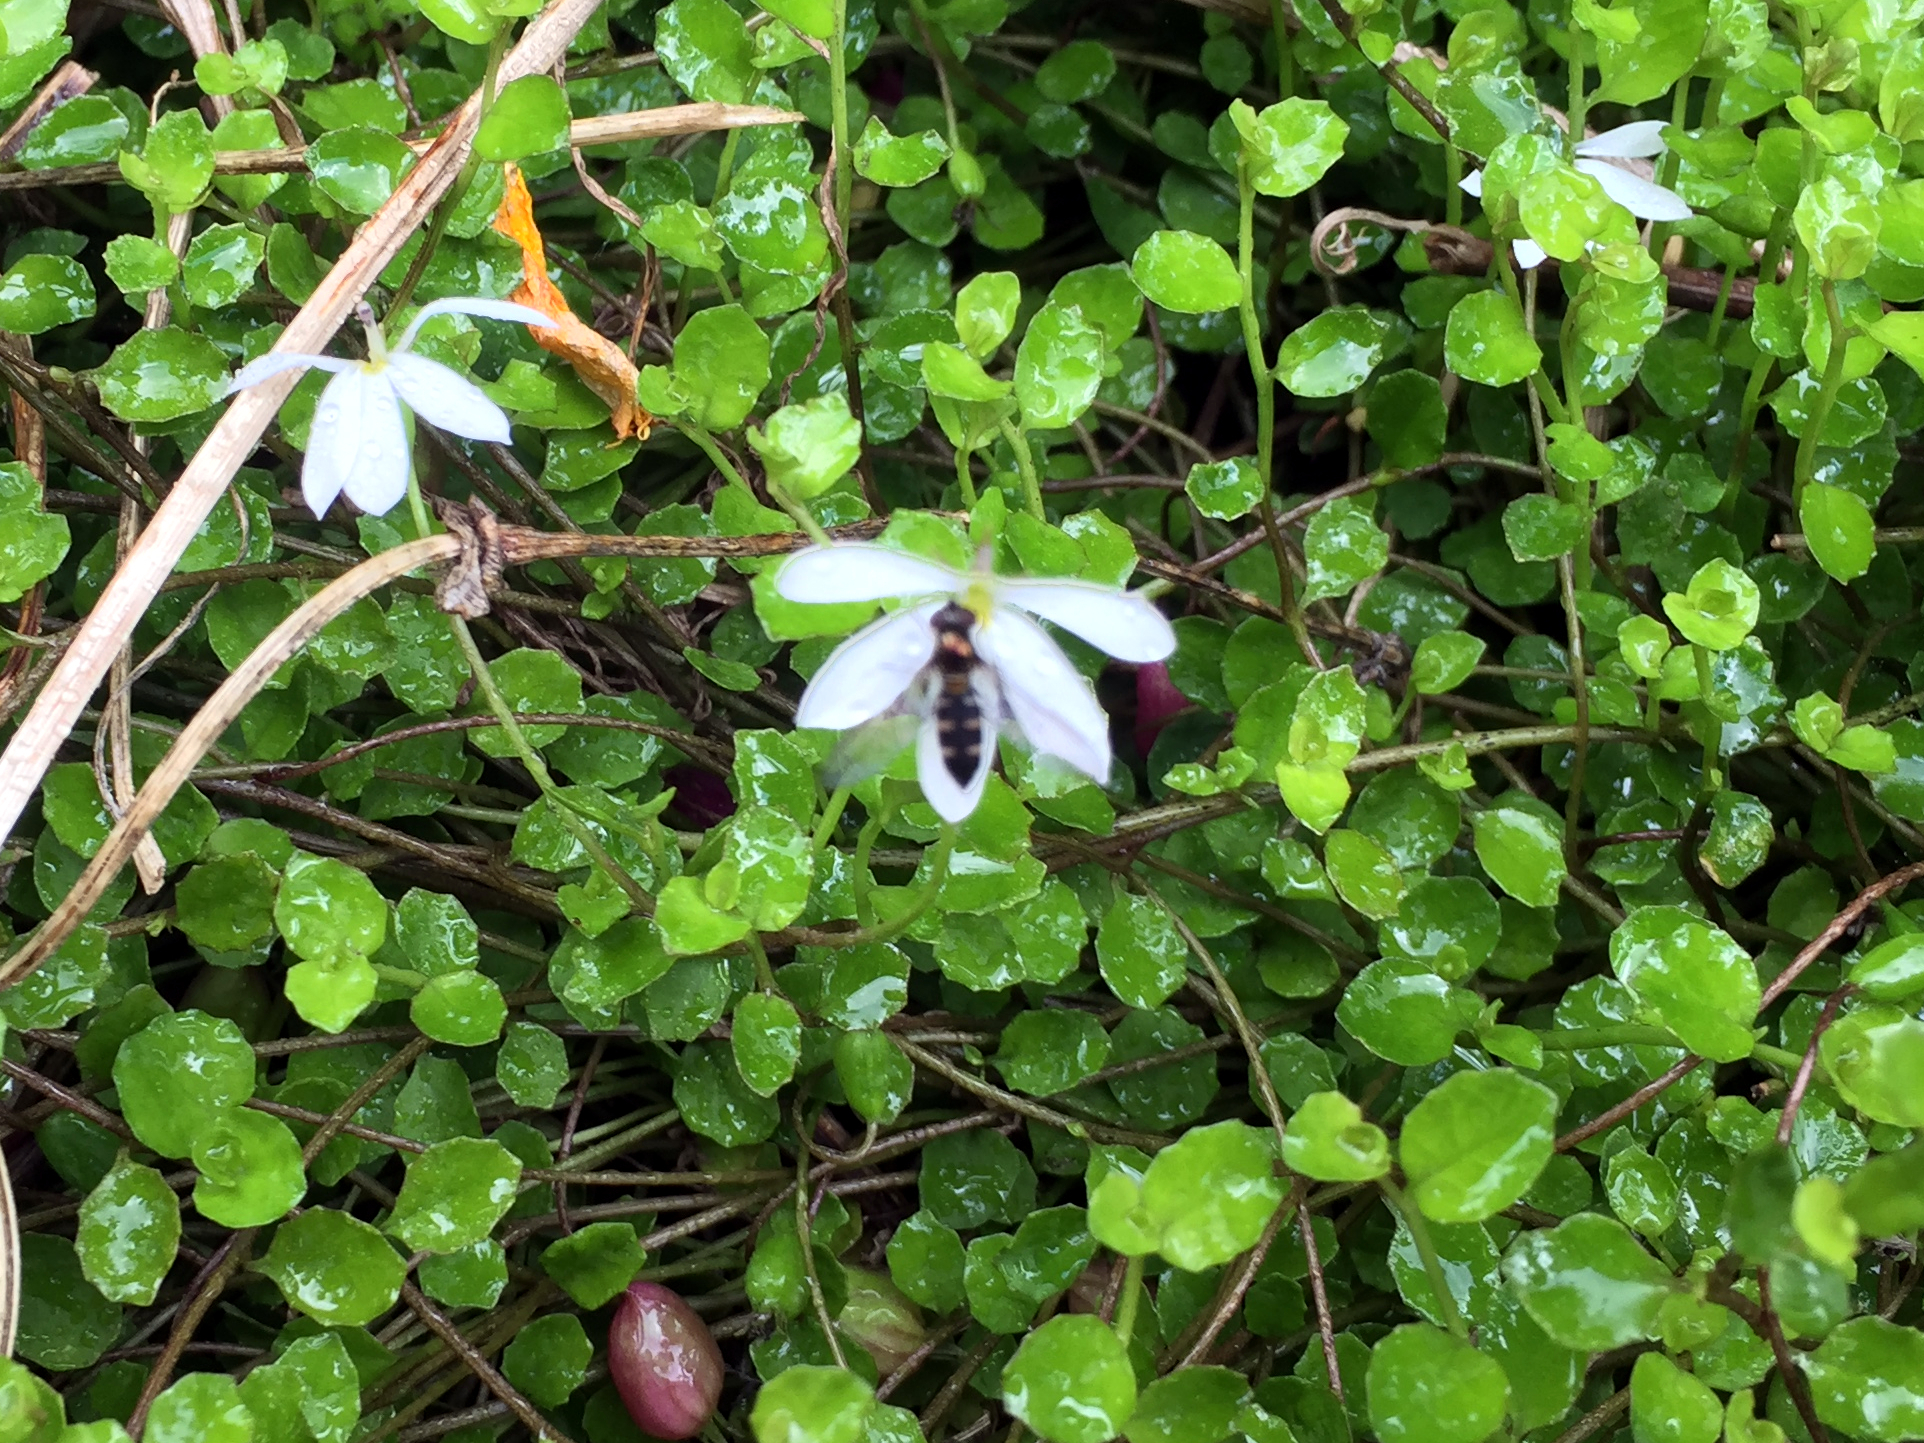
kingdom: Animalia
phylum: Arthropoda
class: Insecta
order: Diptera
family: Syrphidae
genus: Melangyna
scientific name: Melangyna novaezelandiae
